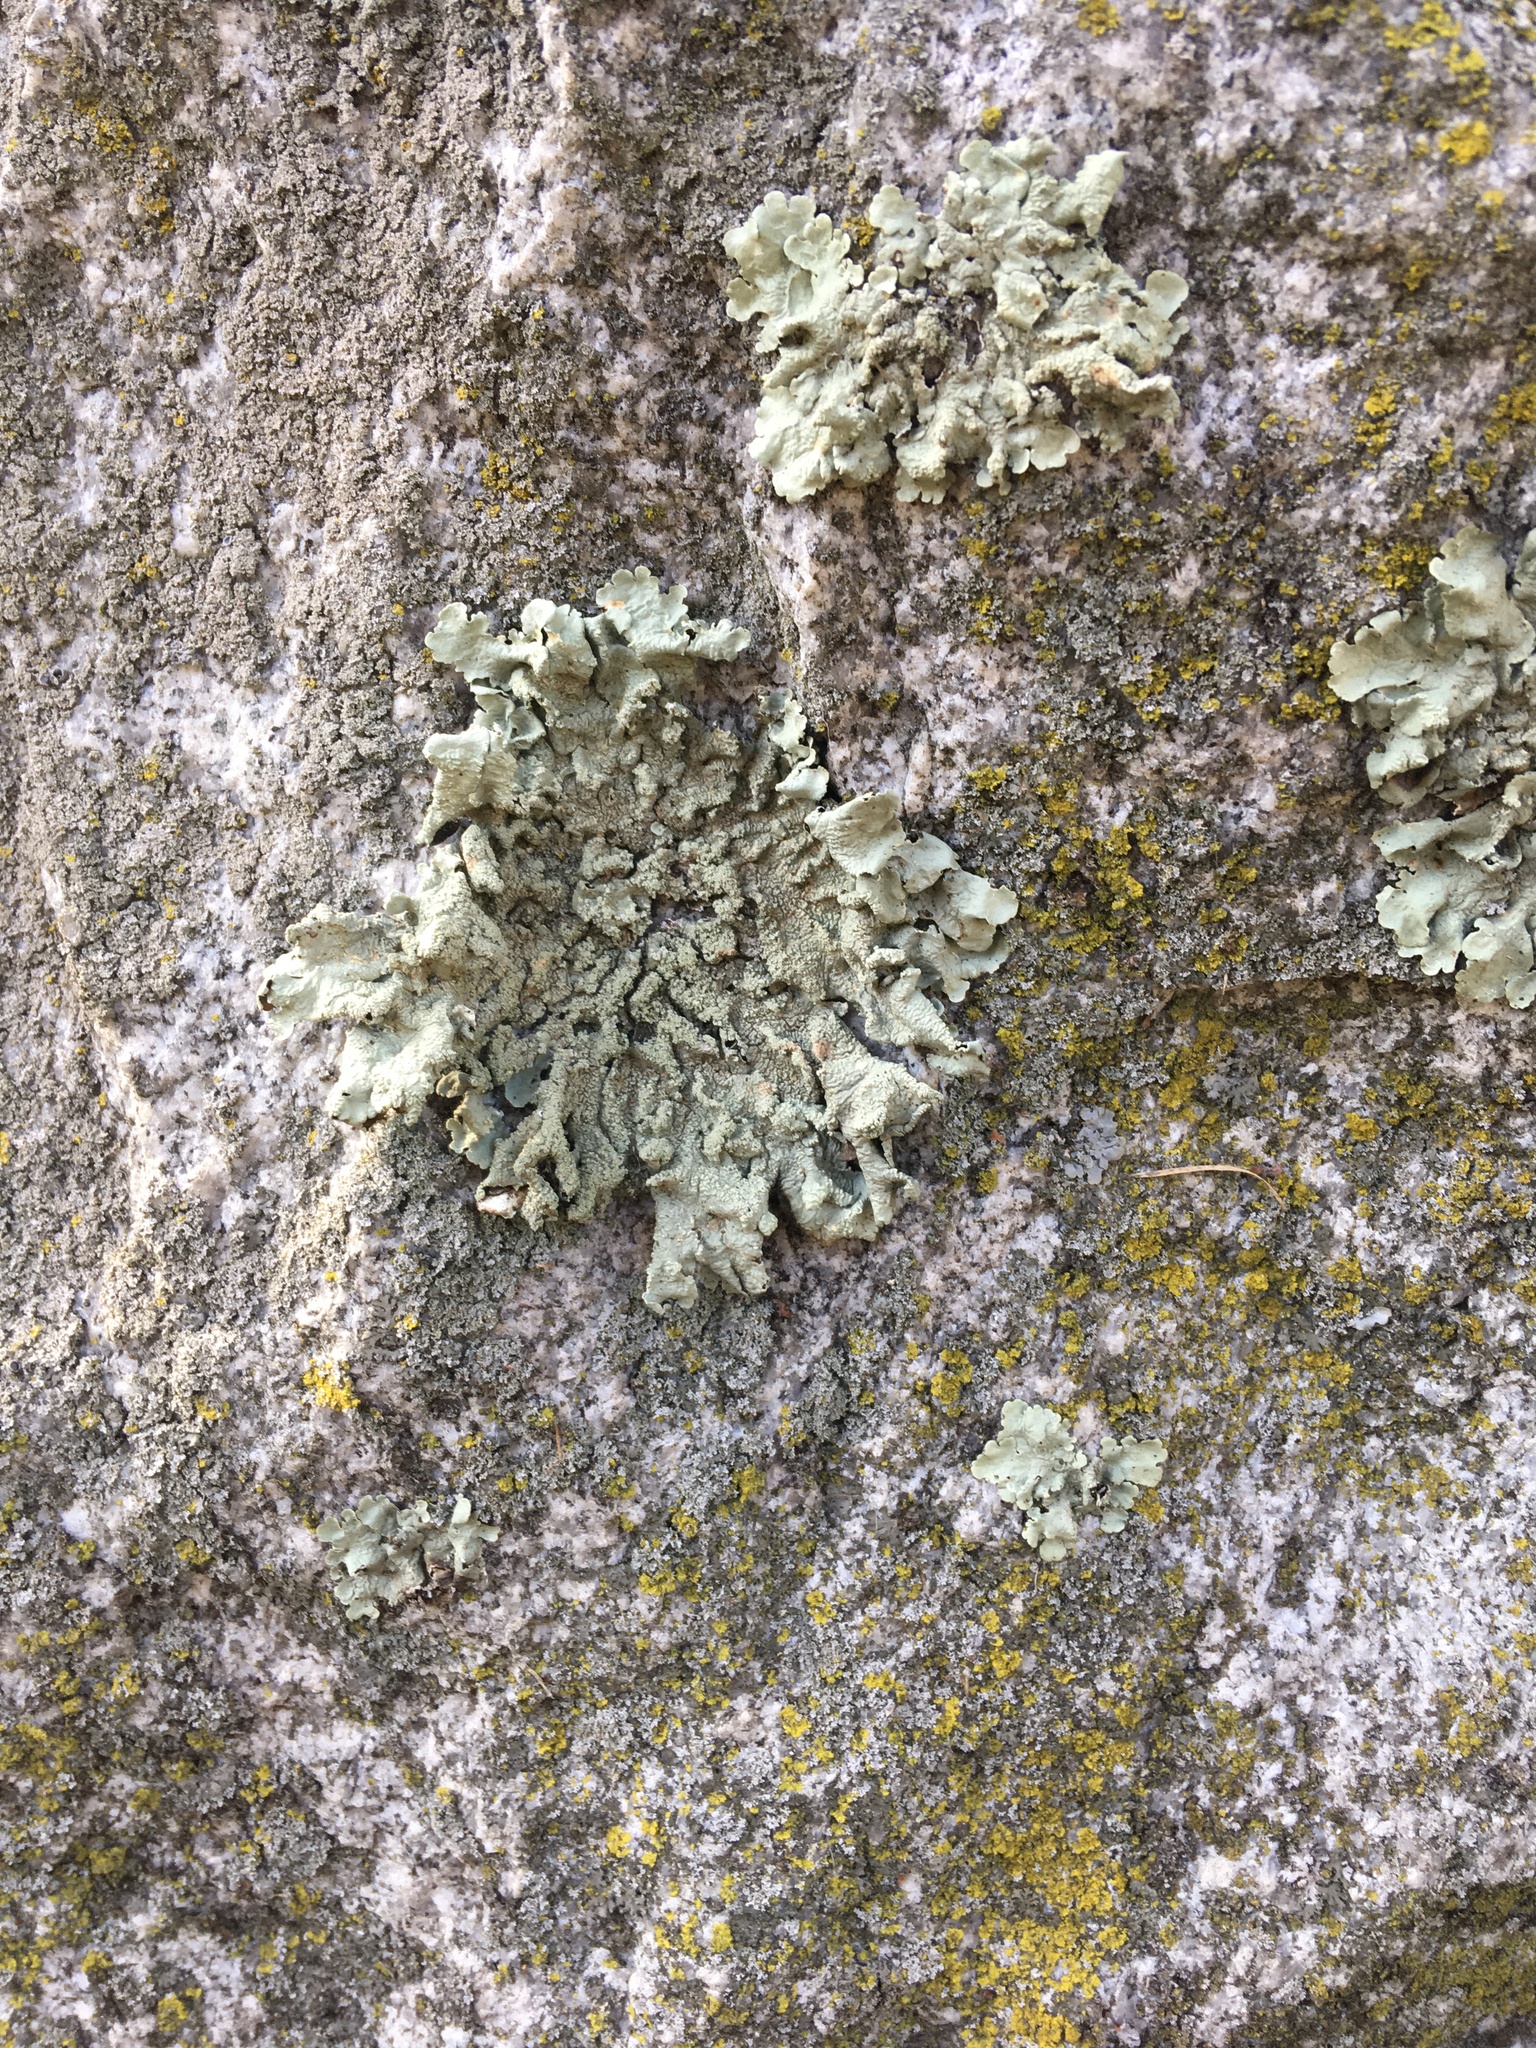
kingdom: Fungi
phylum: Ascomycota
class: Lecanoromycetes
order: Lecanorales
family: Parmeliaceae
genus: Flavoparmelia
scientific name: Flavoparmelia caperata
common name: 40-mile per hour lichen
